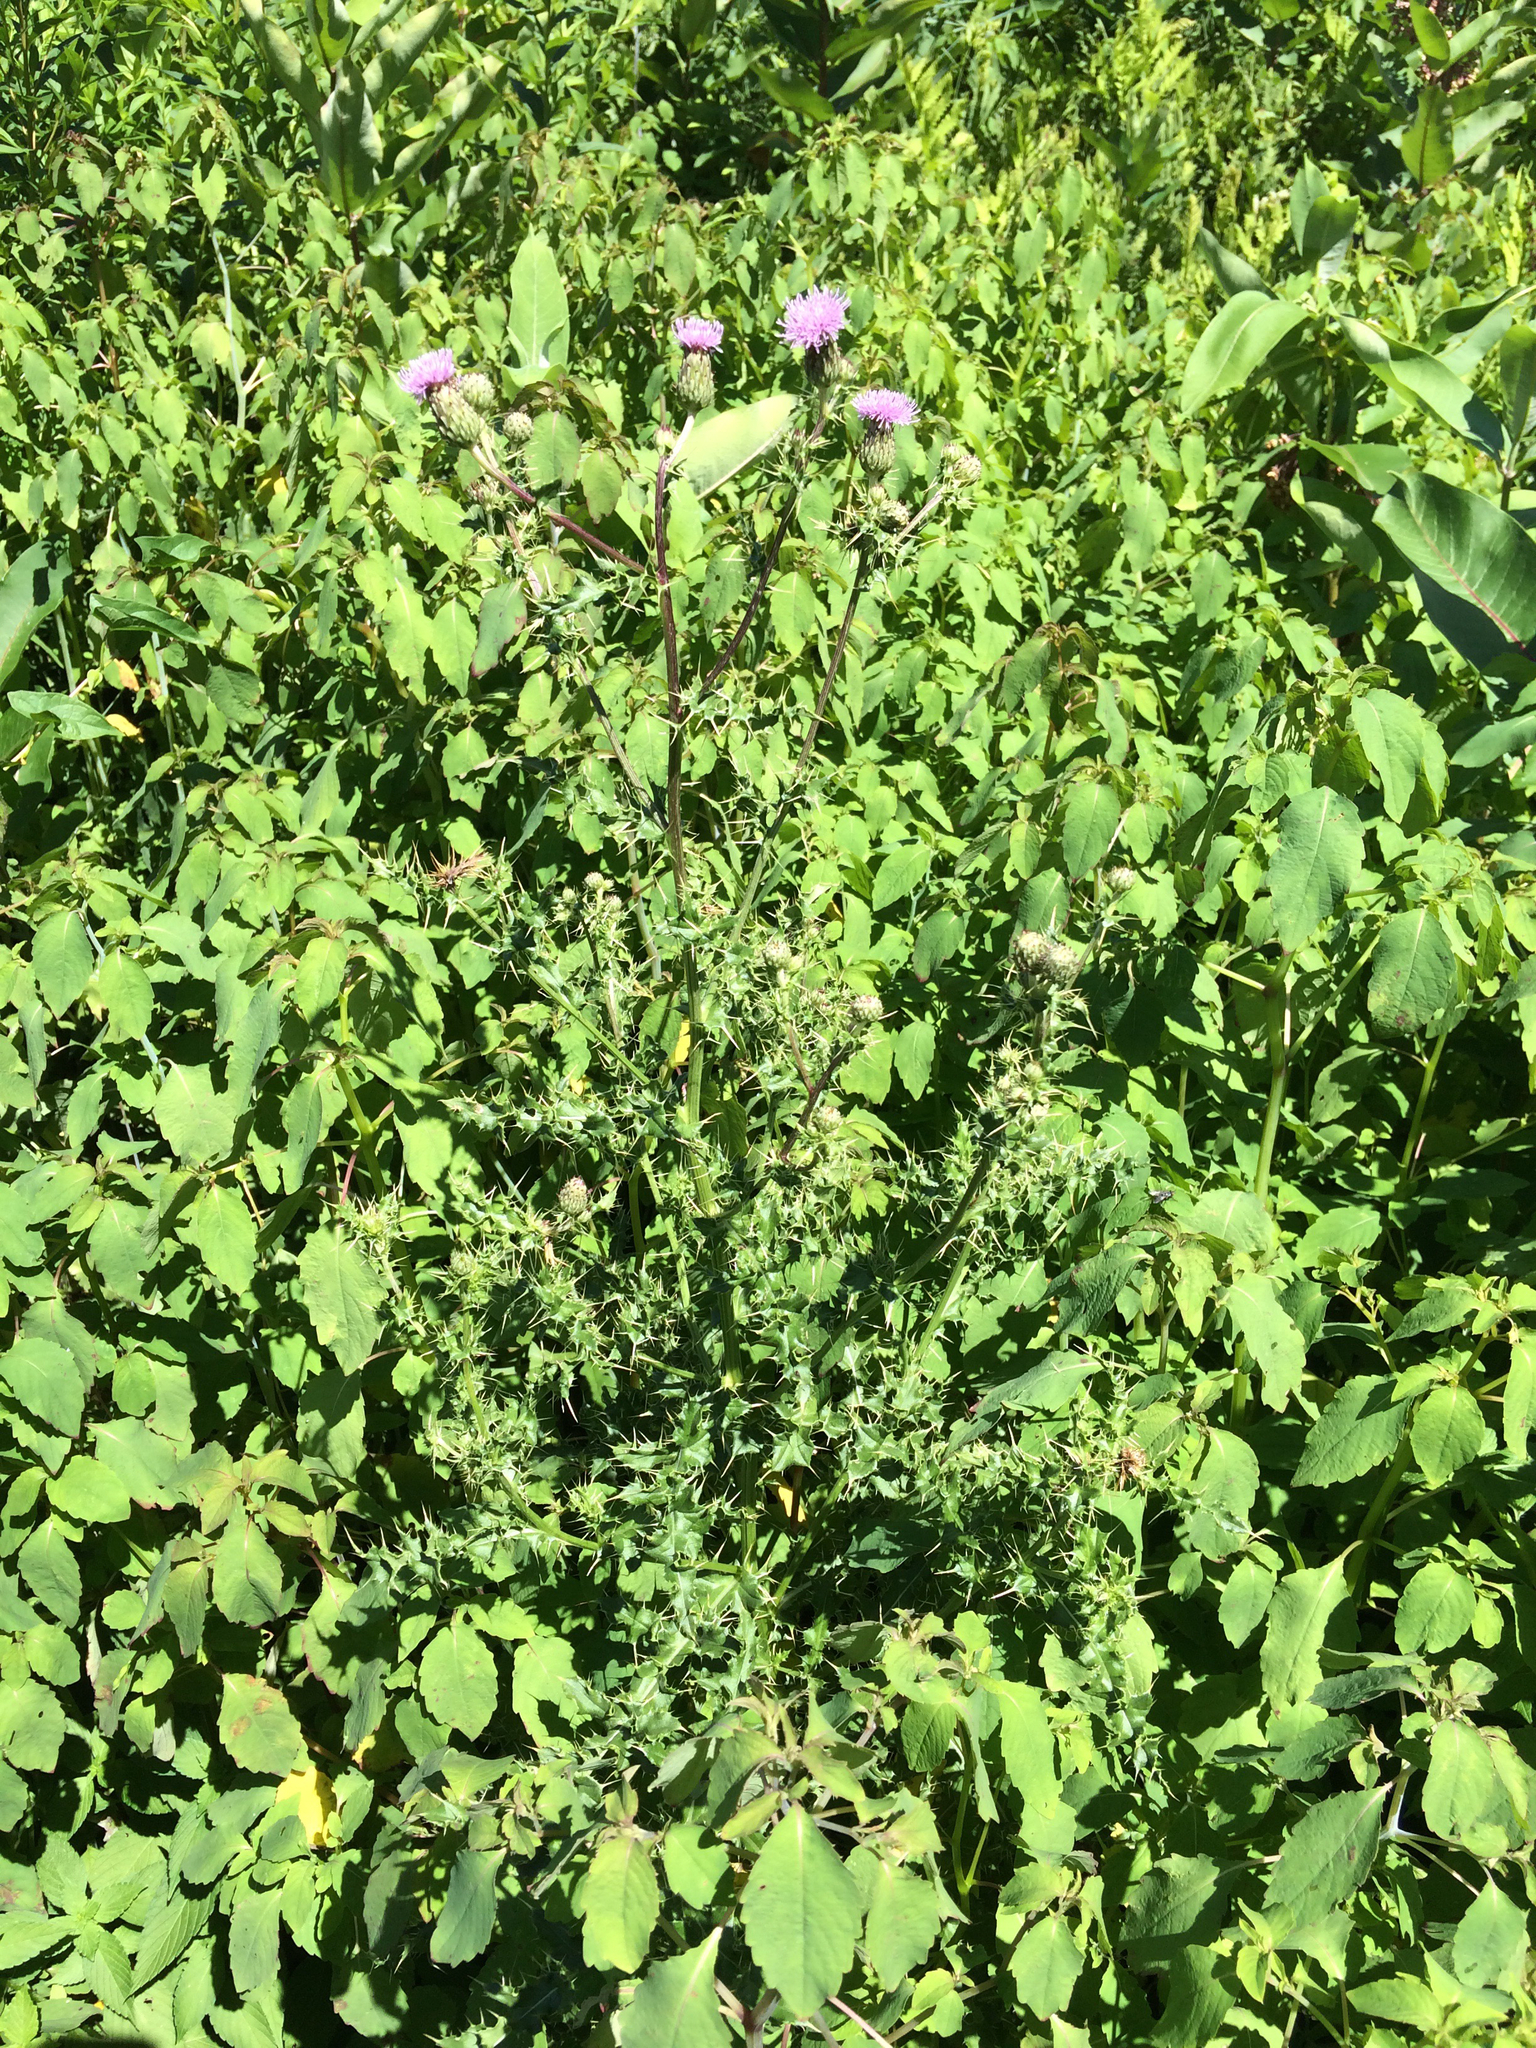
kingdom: Plantae
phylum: Tracheophyta
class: Magnoliopsida
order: Asterales
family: Asteraceae
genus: Cirsium
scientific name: Cirsium arvense
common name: Creeping thistle
